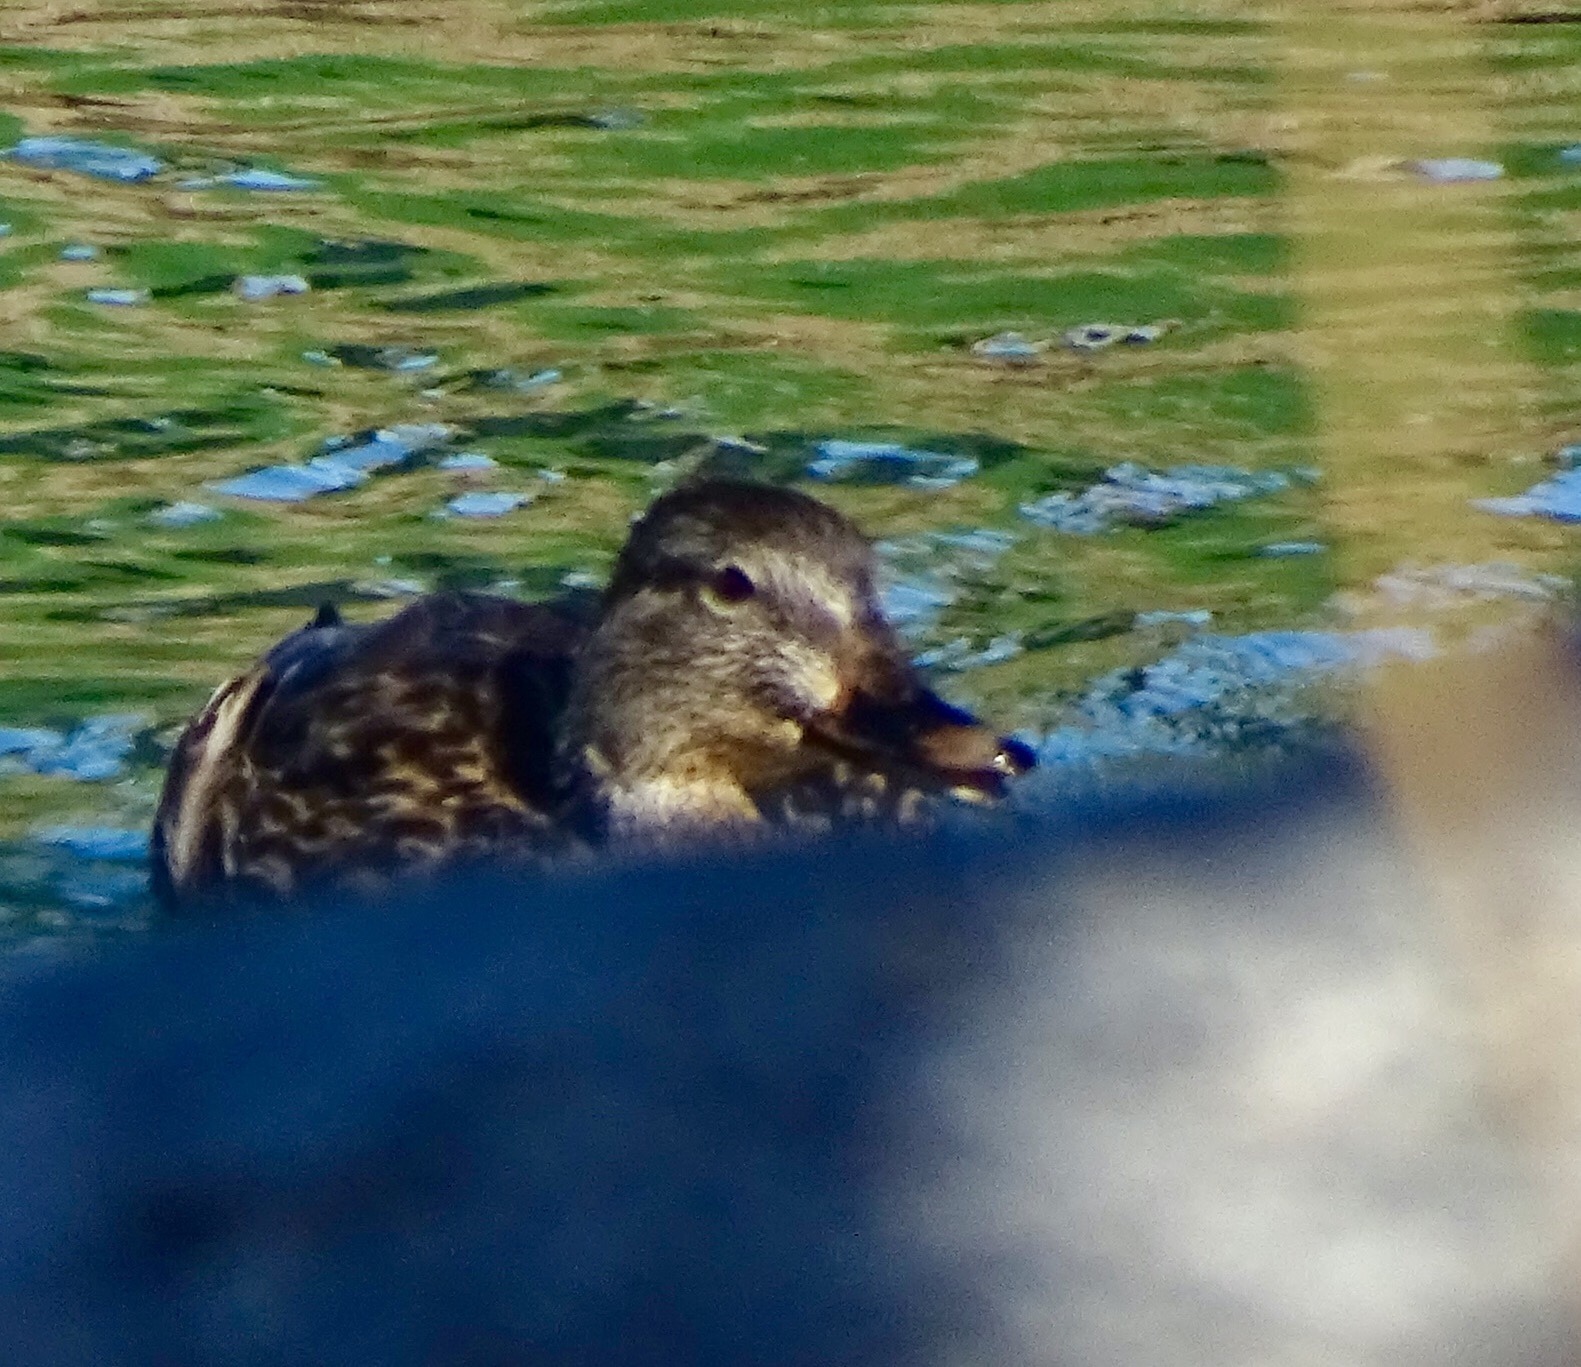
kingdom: Animalia
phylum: Chordata
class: Aves
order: Anseriformes
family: Anatidae
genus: Anas
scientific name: Anas platyrhynchos
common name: Mallard
